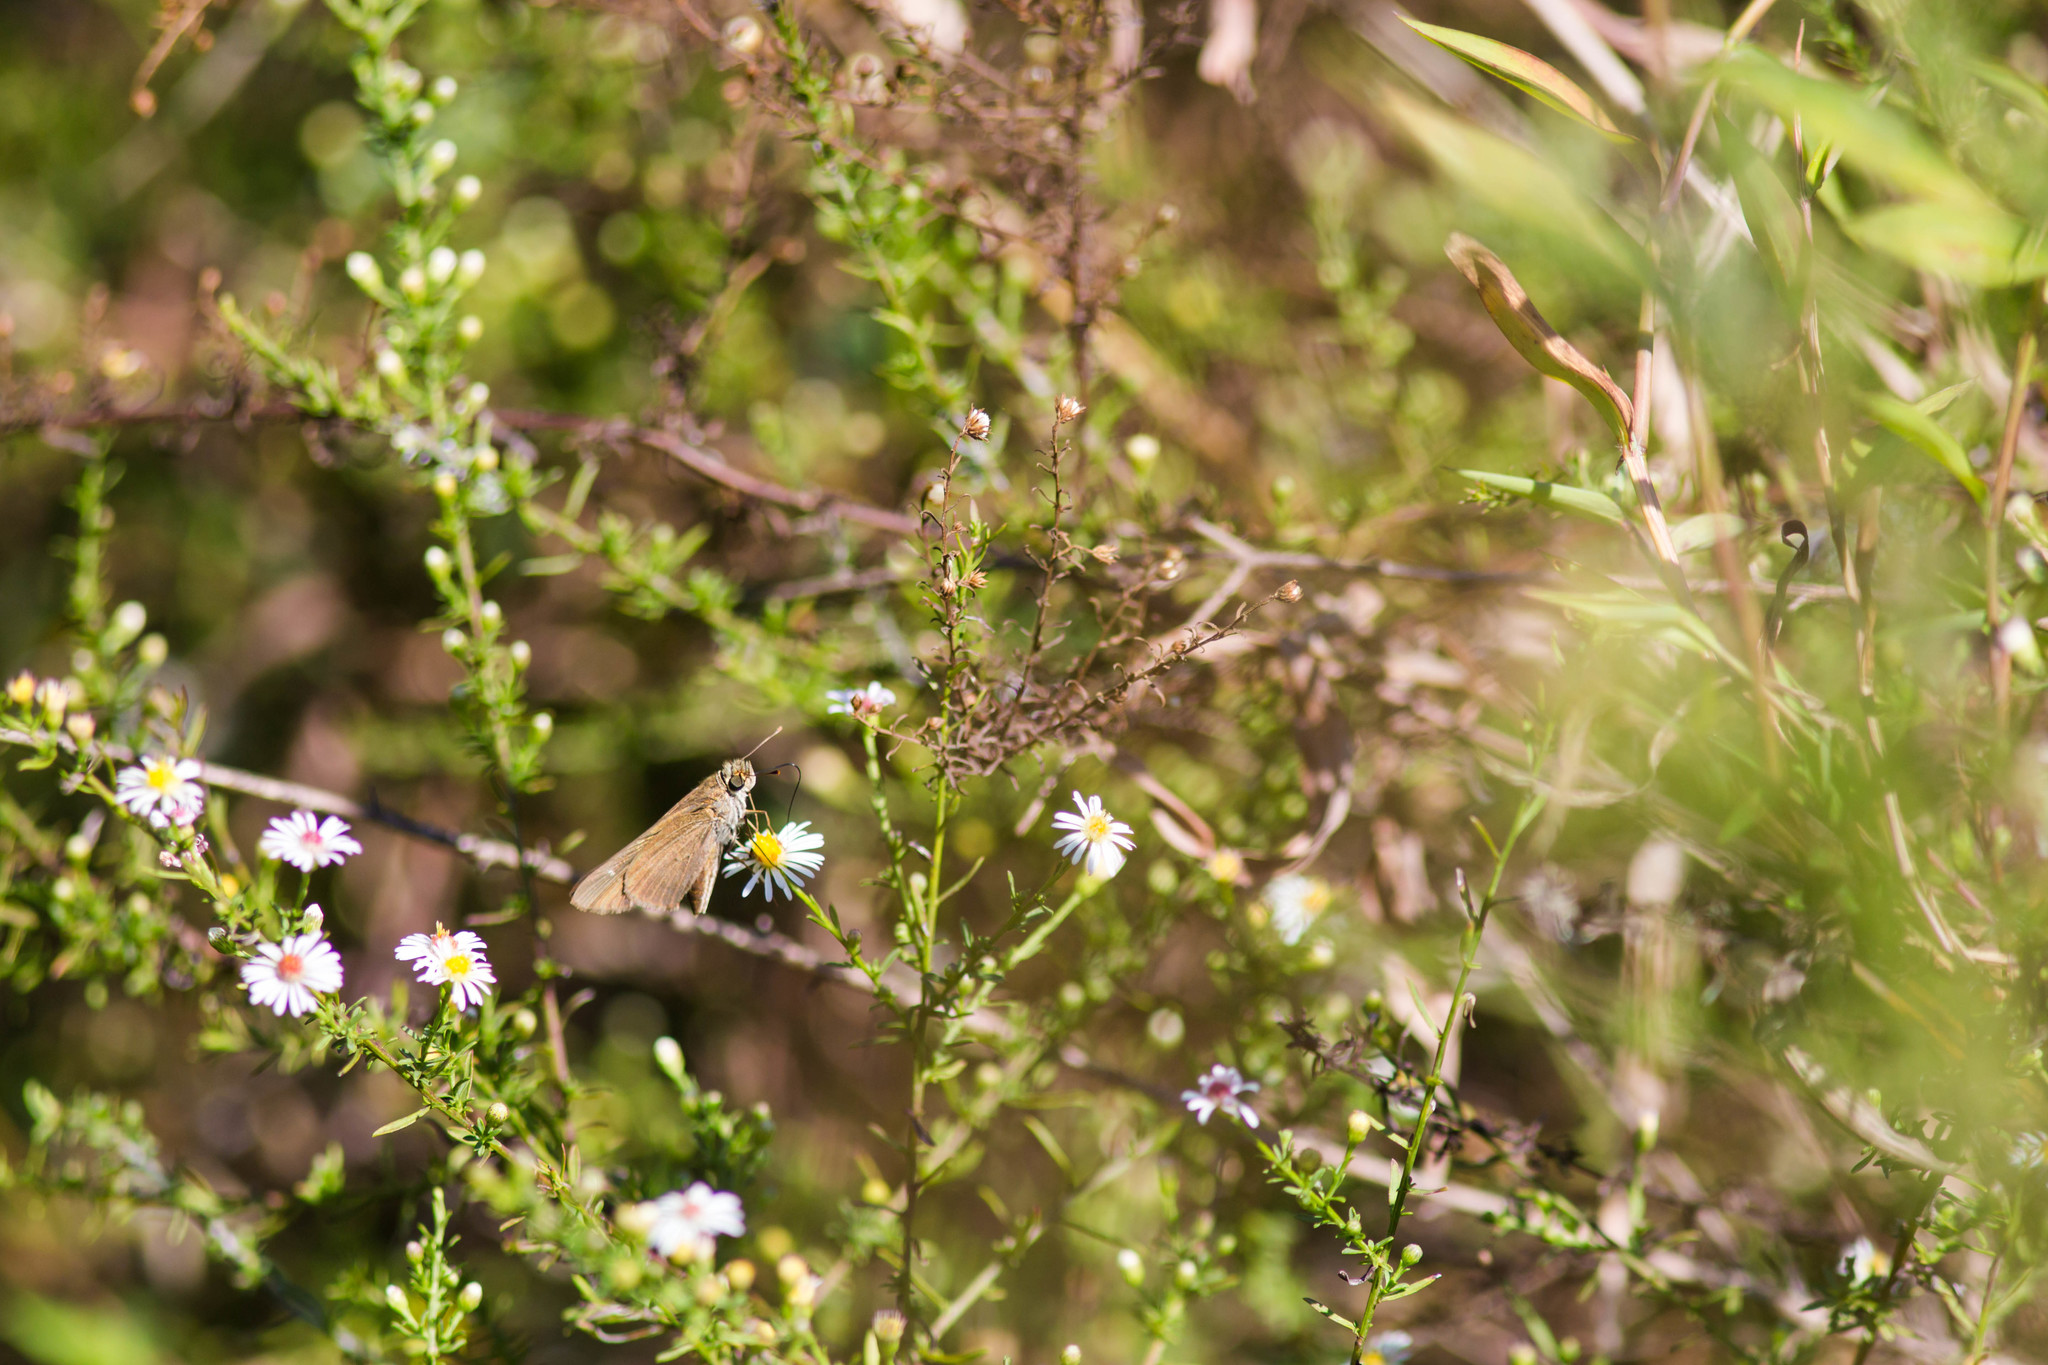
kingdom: Animalia
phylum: Arthropoda
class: Insecta
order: Lepidoptera
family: Hesperiidae
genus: Panoquina
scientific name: Panoquina ocola
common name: Ocola skipper
